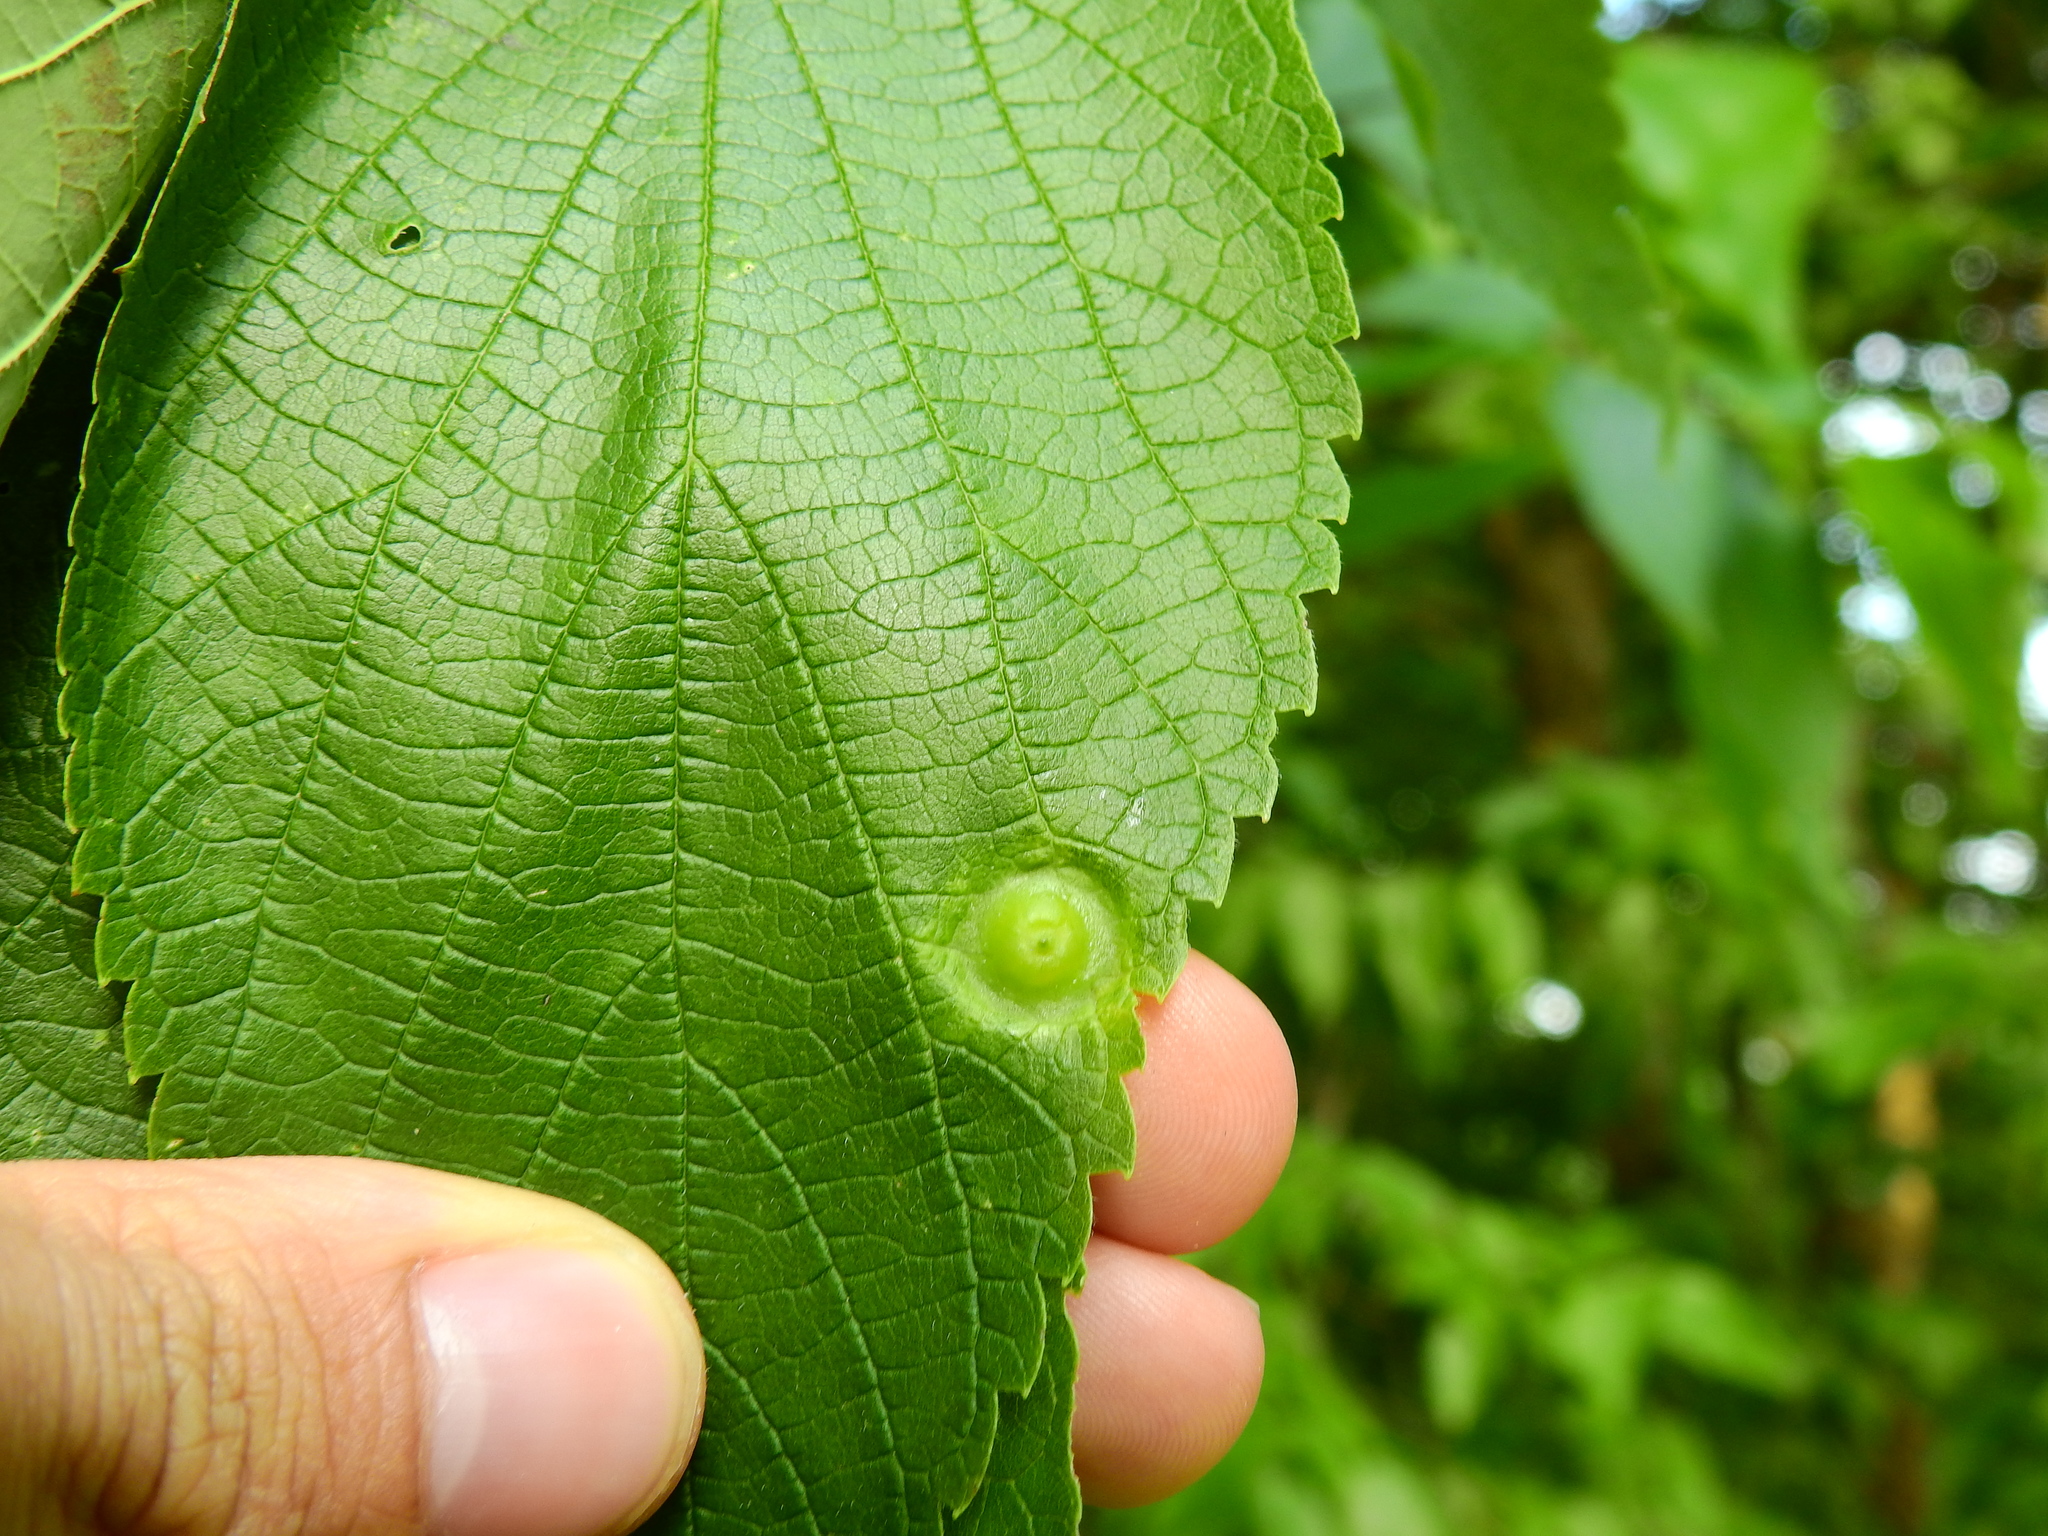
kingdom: Animalia
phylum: Arthropoda
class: Insecta
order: Hemiptera
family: Aphalaridae
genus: Pachypsylla
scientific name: Pachypsylla celtidisumbilicus
